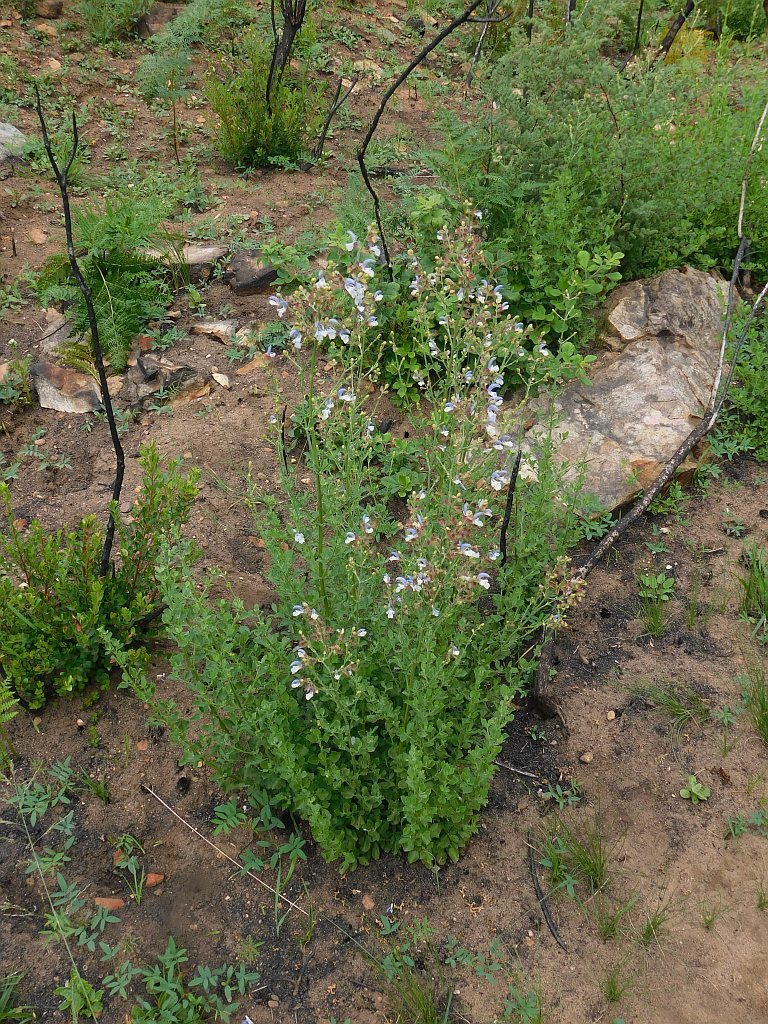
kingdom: Plantae
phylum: Tracheophyta
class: Magnoliopsida
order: Lamiales
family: Lamiaceae
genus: Salvia
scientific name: Salvia chamelaeagnea
